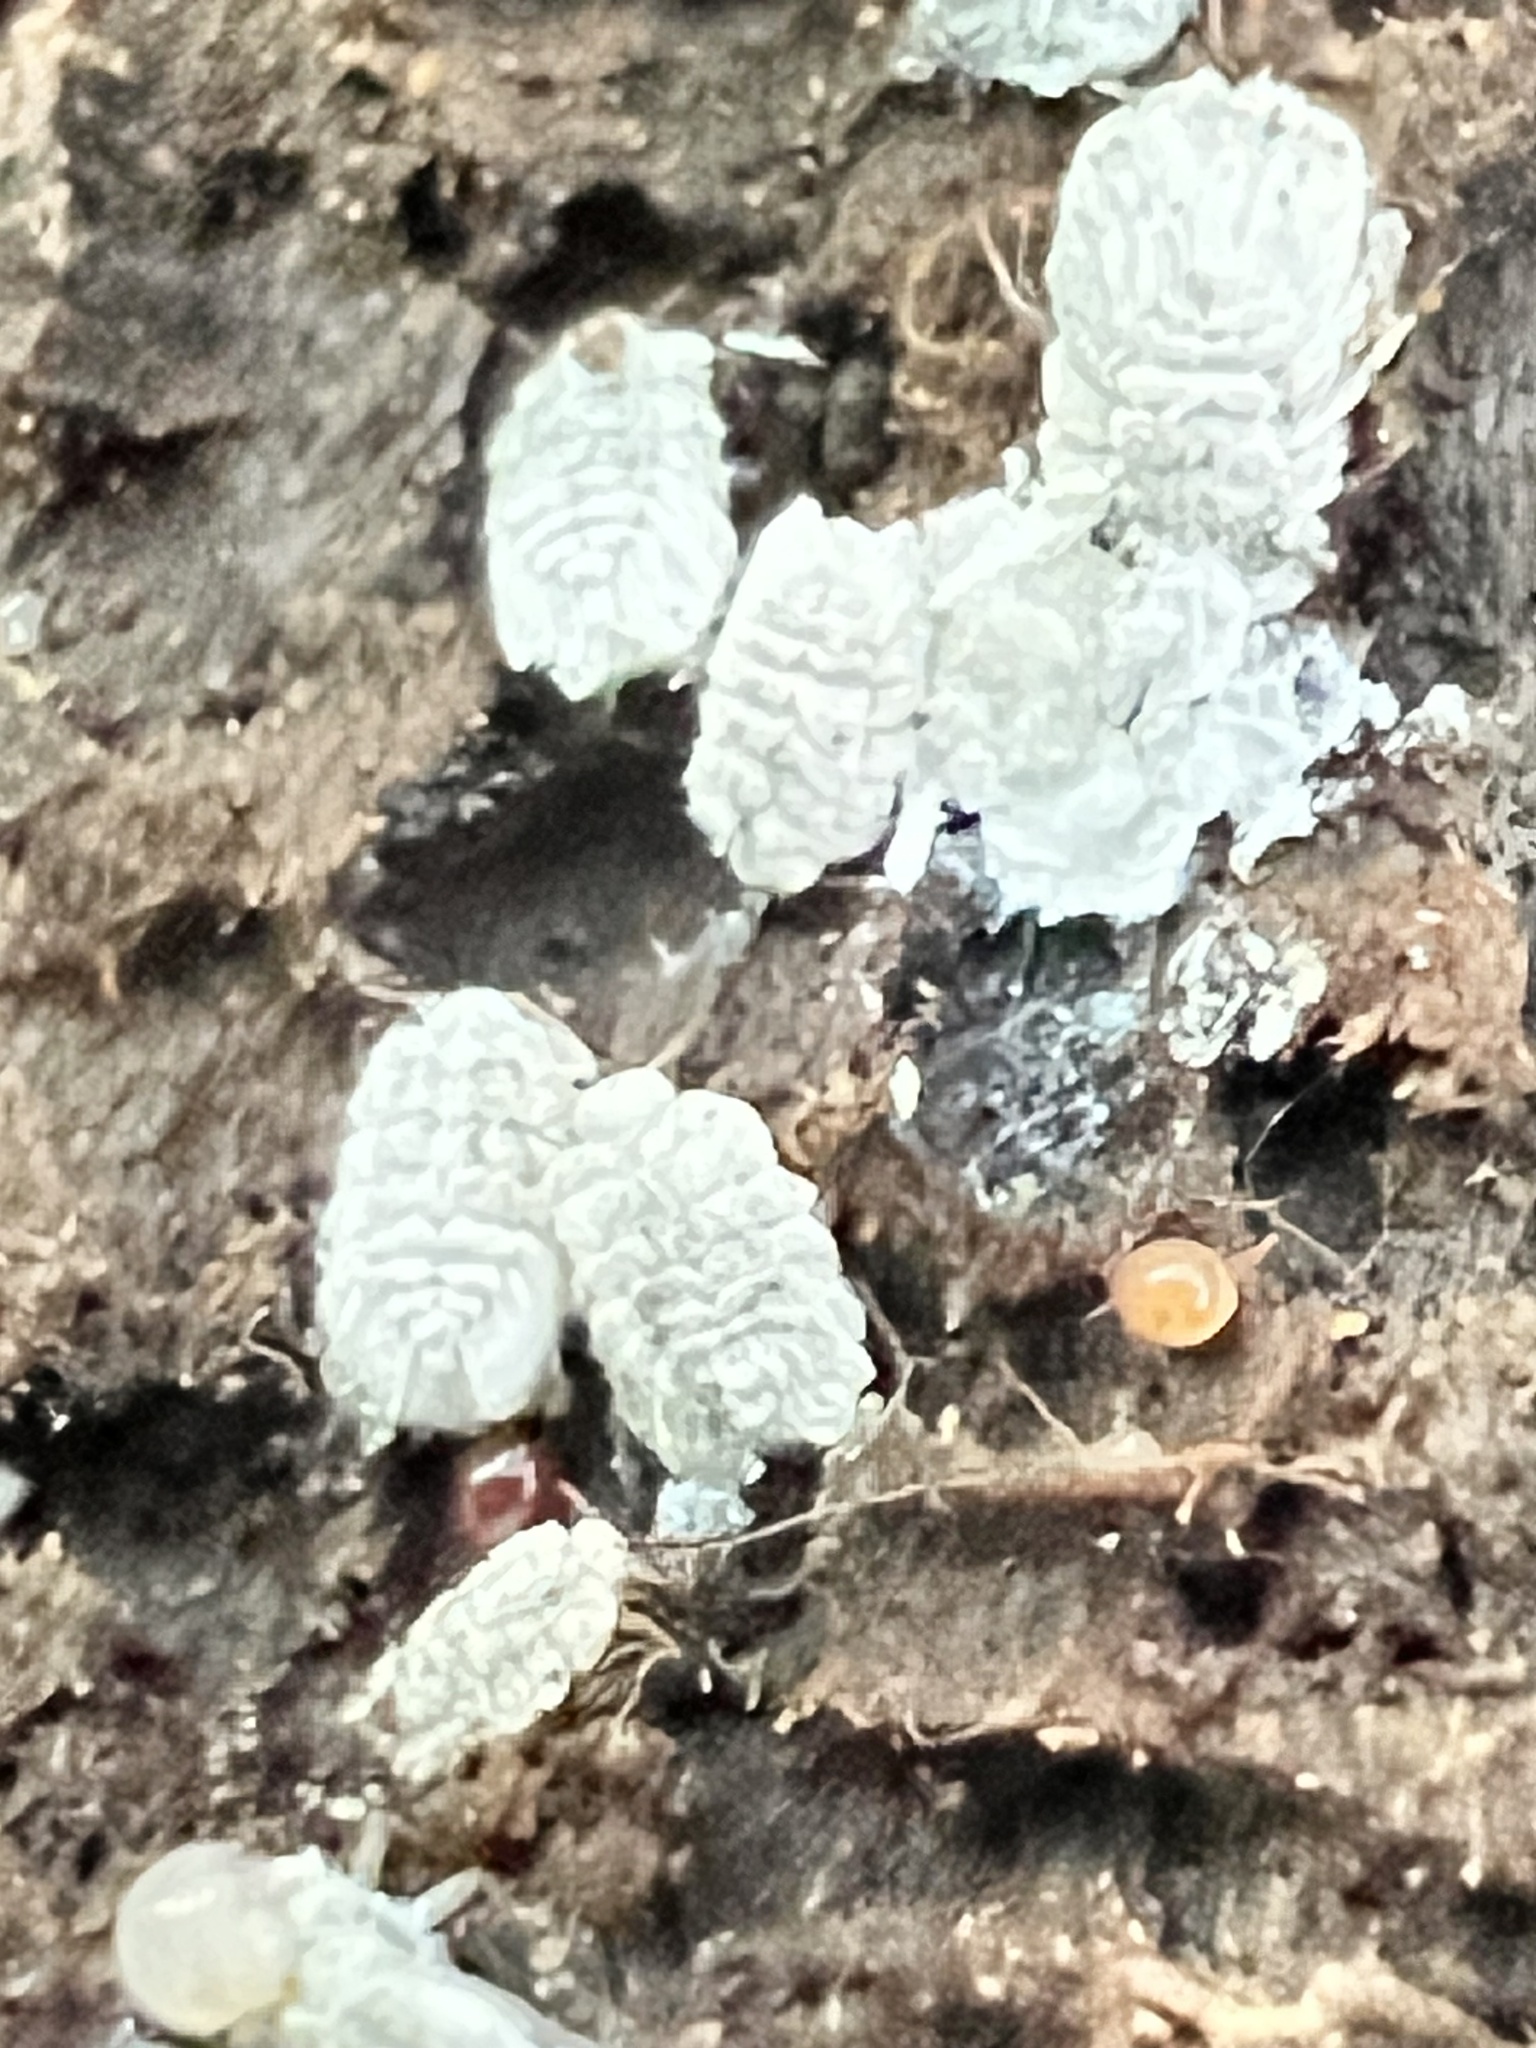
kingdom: Animalia
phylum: Arthropoda
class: Insecta
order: Hemiptera
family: Ortheziidae
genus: Newsteadia
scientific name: Newsteadia gullanae
